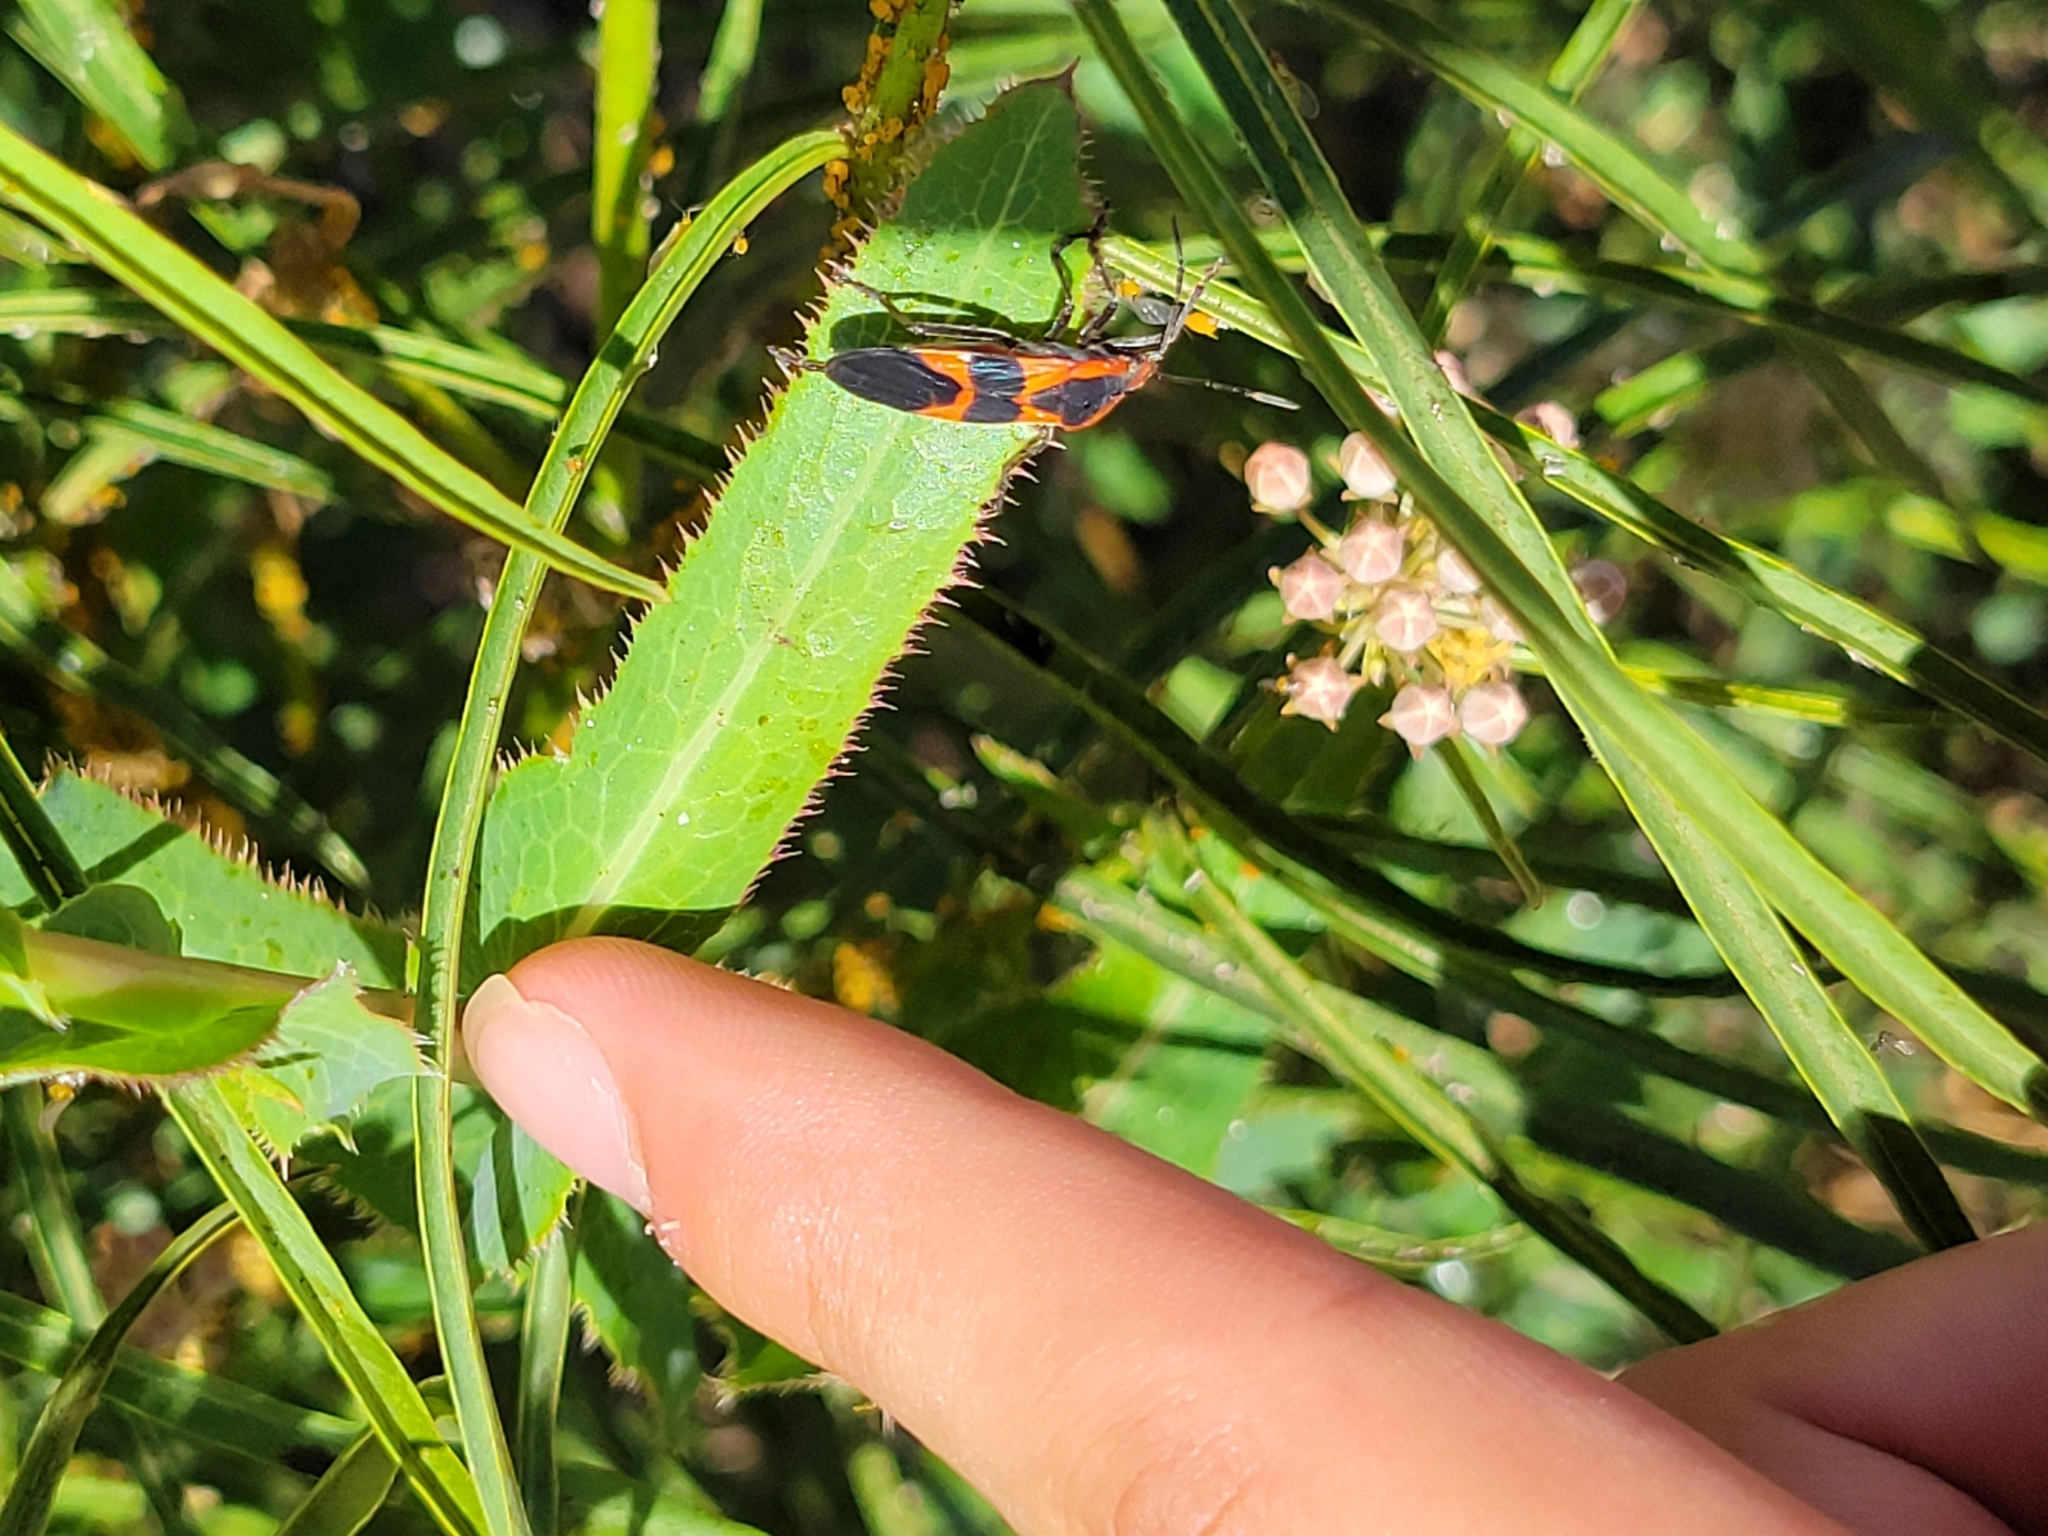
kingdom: Animalia
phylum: Arthropoda
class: Insecta
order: Hemiptera
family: Lygaeidae
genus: Oncopeltus
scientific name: Oncopeltus fasciatus
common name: Large milkweed bug
